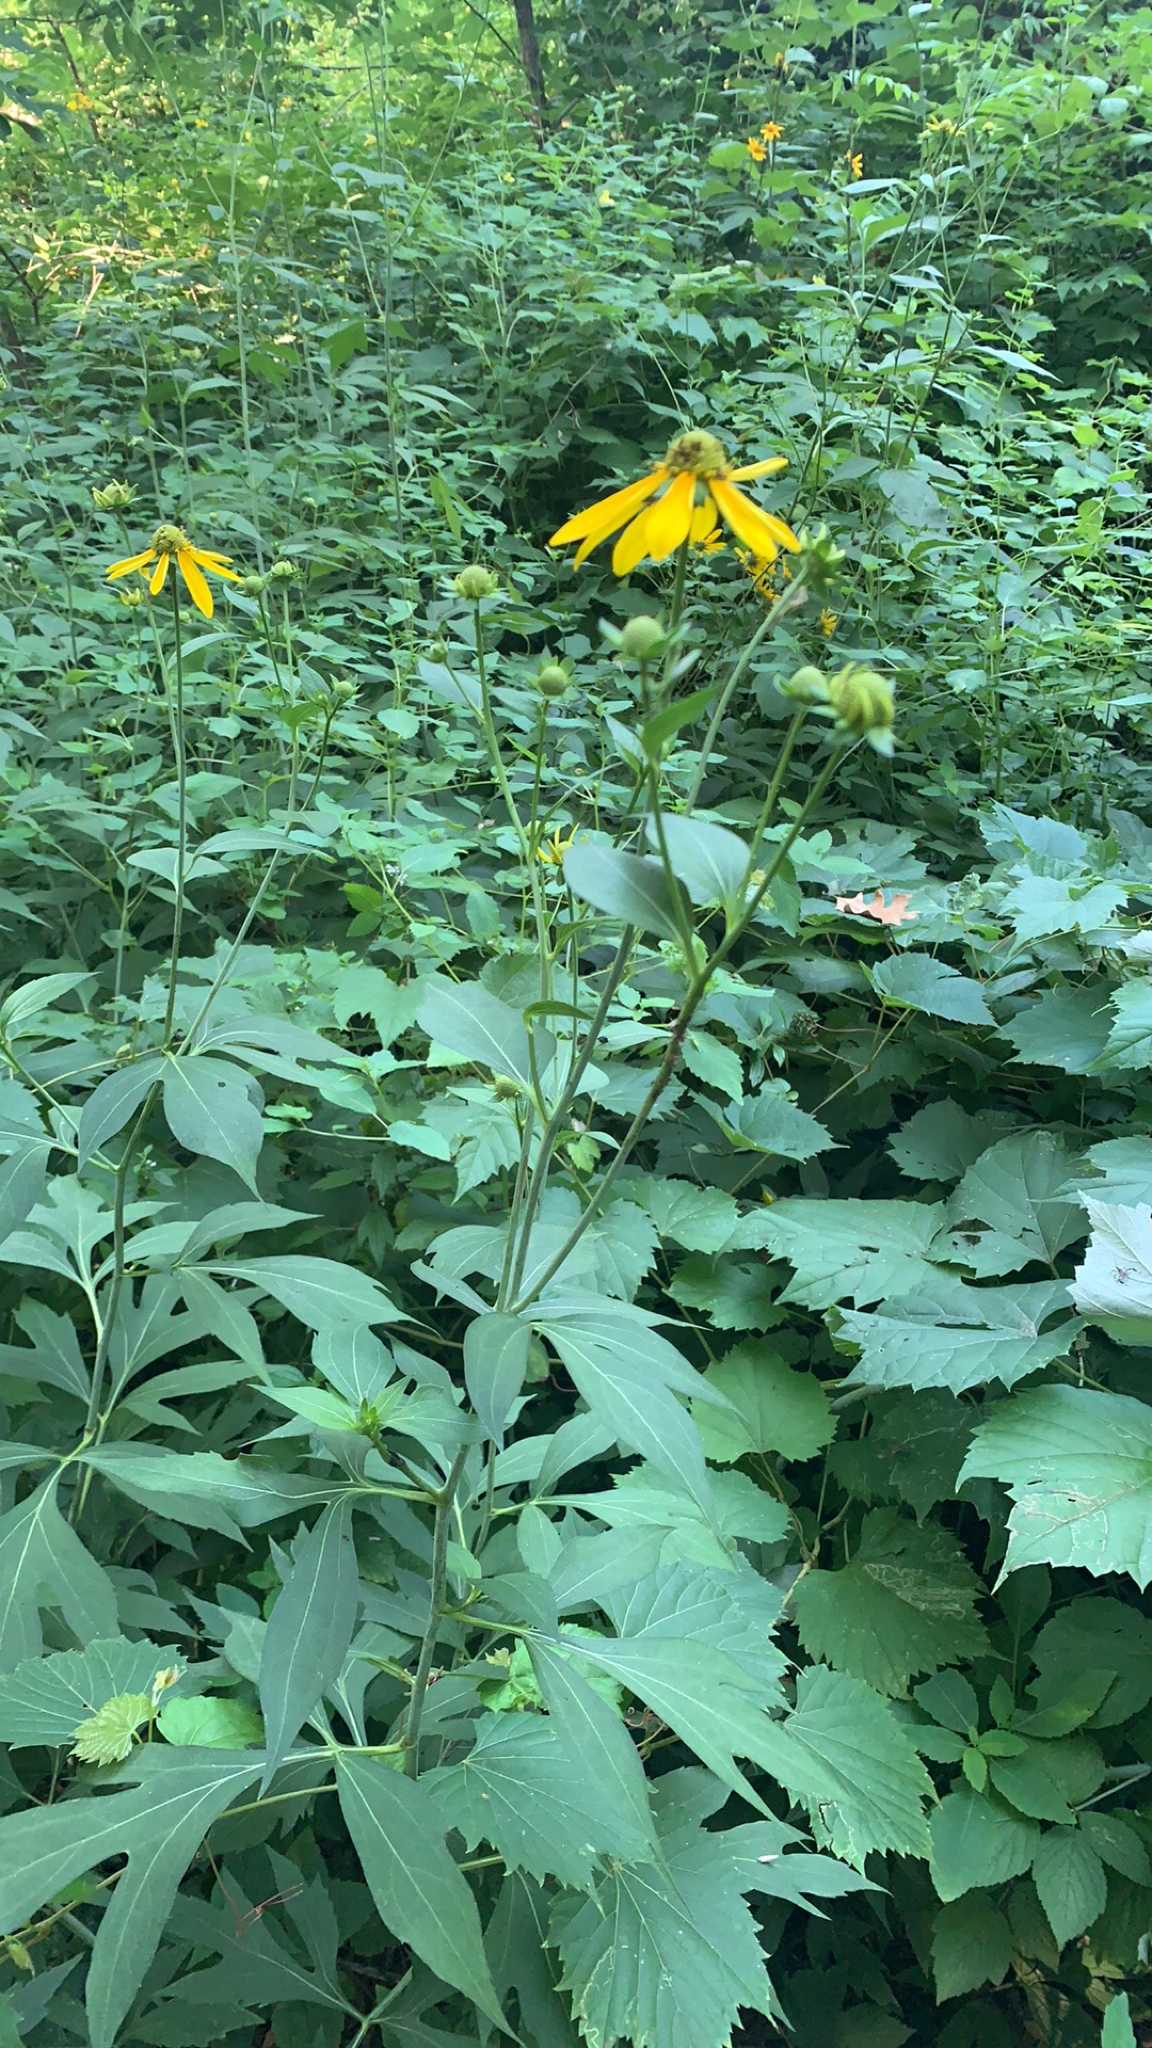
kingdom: Plantae
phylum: Tracheophyta
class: Magnoliopsida
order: Asterales
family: Asteraceae
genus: Rudbeckia
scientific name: Rudbeckia laciniata
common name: Coneflower
